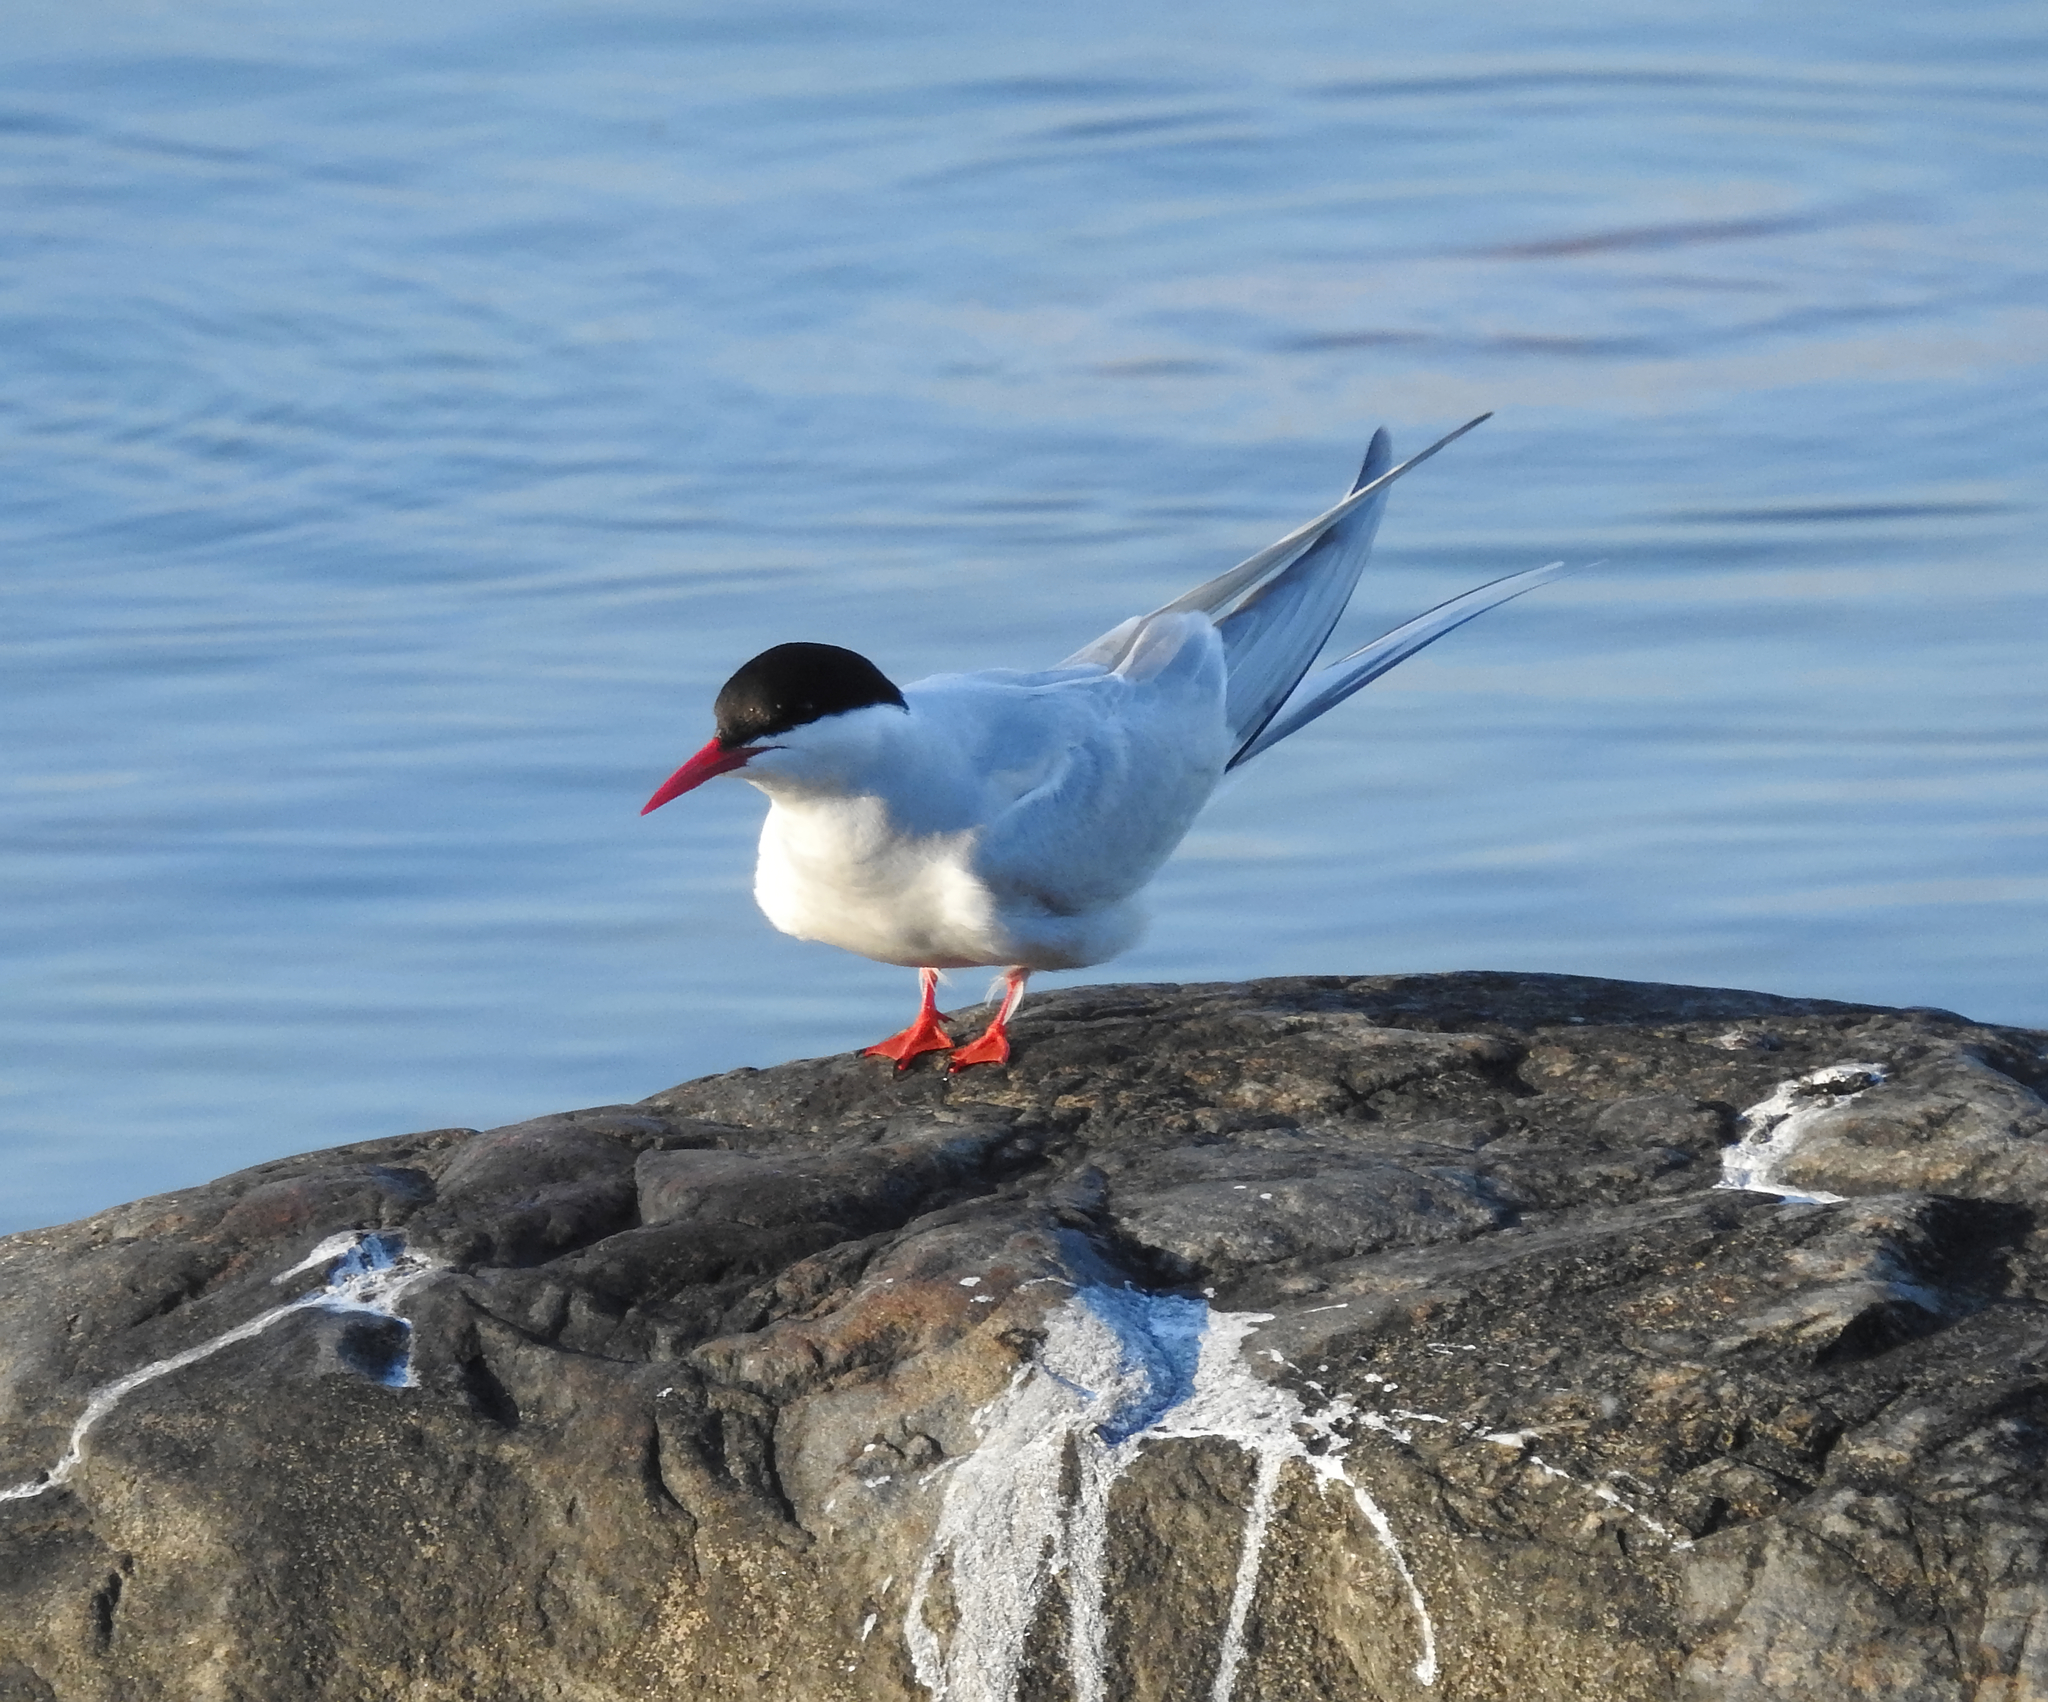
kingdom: Animalia
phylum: Chordata
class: Aves
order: Charadriiformes
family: Laridae
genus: Sterna
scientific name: Sterna paradisaea
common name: Arctic tern
